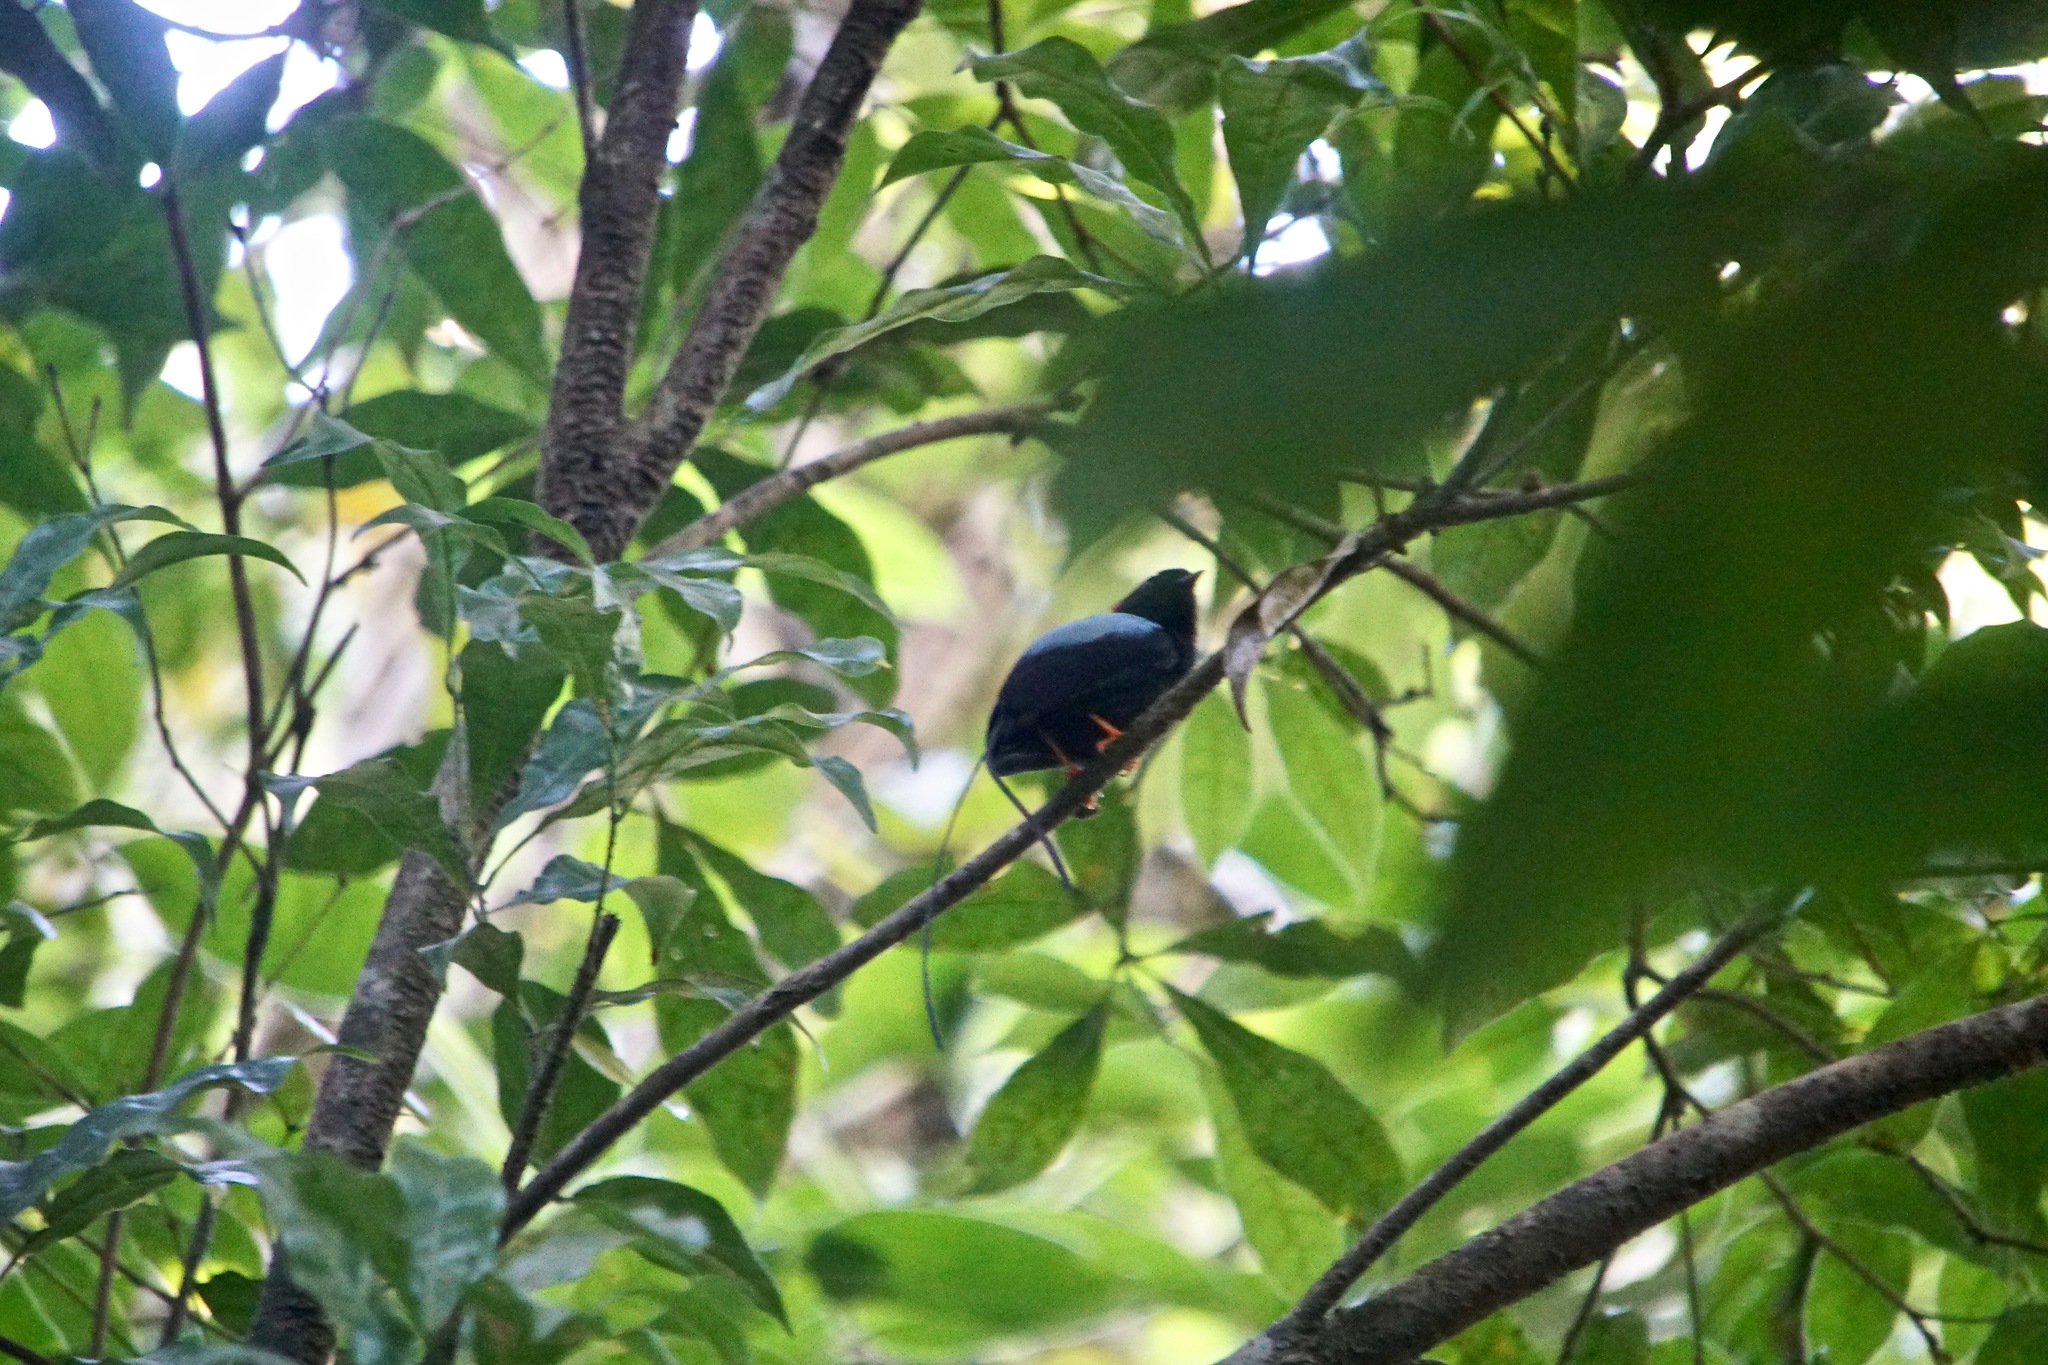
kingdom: Animalia
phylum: Chordata
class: Aves
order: Passeriformes
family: Pipridae
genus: Chiroxiphia
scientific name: Chiroxiphia linearis
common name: Long-tailed manakin
